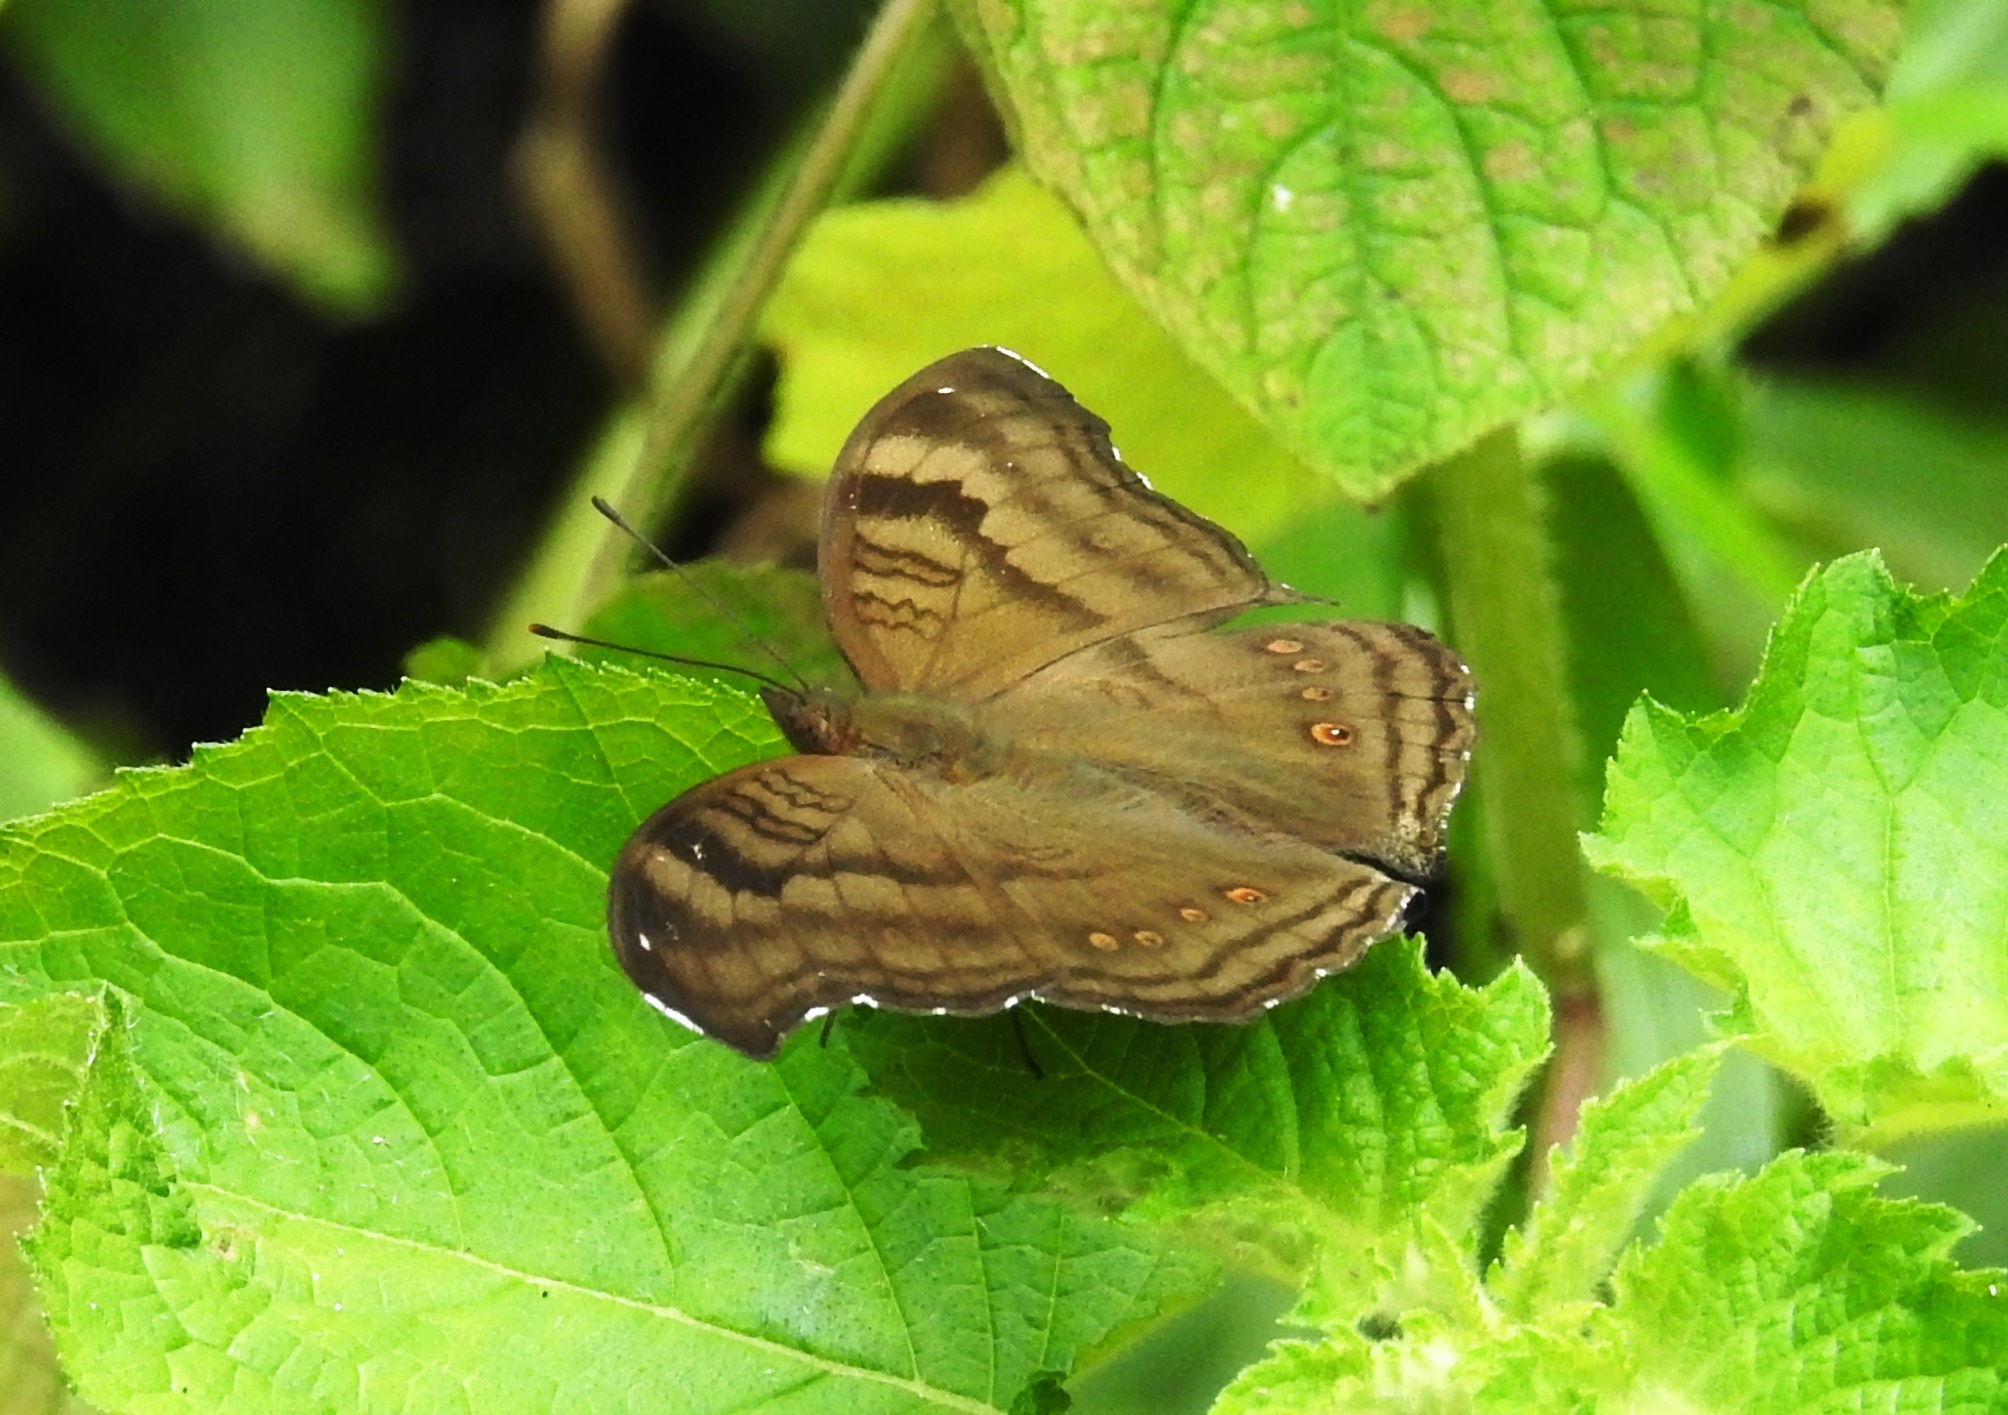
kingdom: Animalia
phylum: Arthropoda
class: Insecta
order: Lepidoptera
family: Nymphalidae
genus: Junonia
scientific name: Junonia iphita
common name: Chocolate pansy
